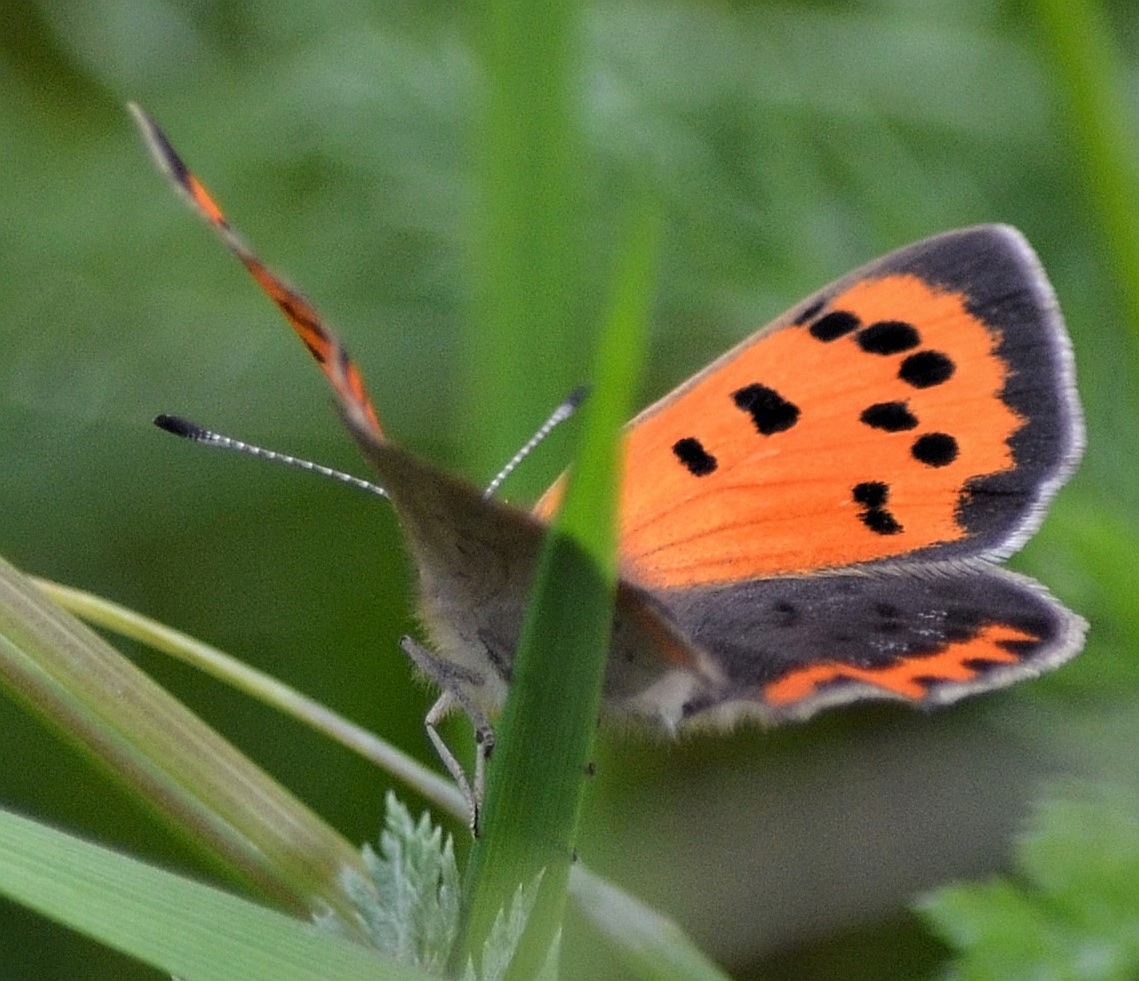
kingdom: Animalia
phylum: Arthropoda
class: Insecta
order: Lepidoptera
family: Lycaenidae
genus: Lycaena
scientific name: Lycaena phlaeas
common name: Small copper
